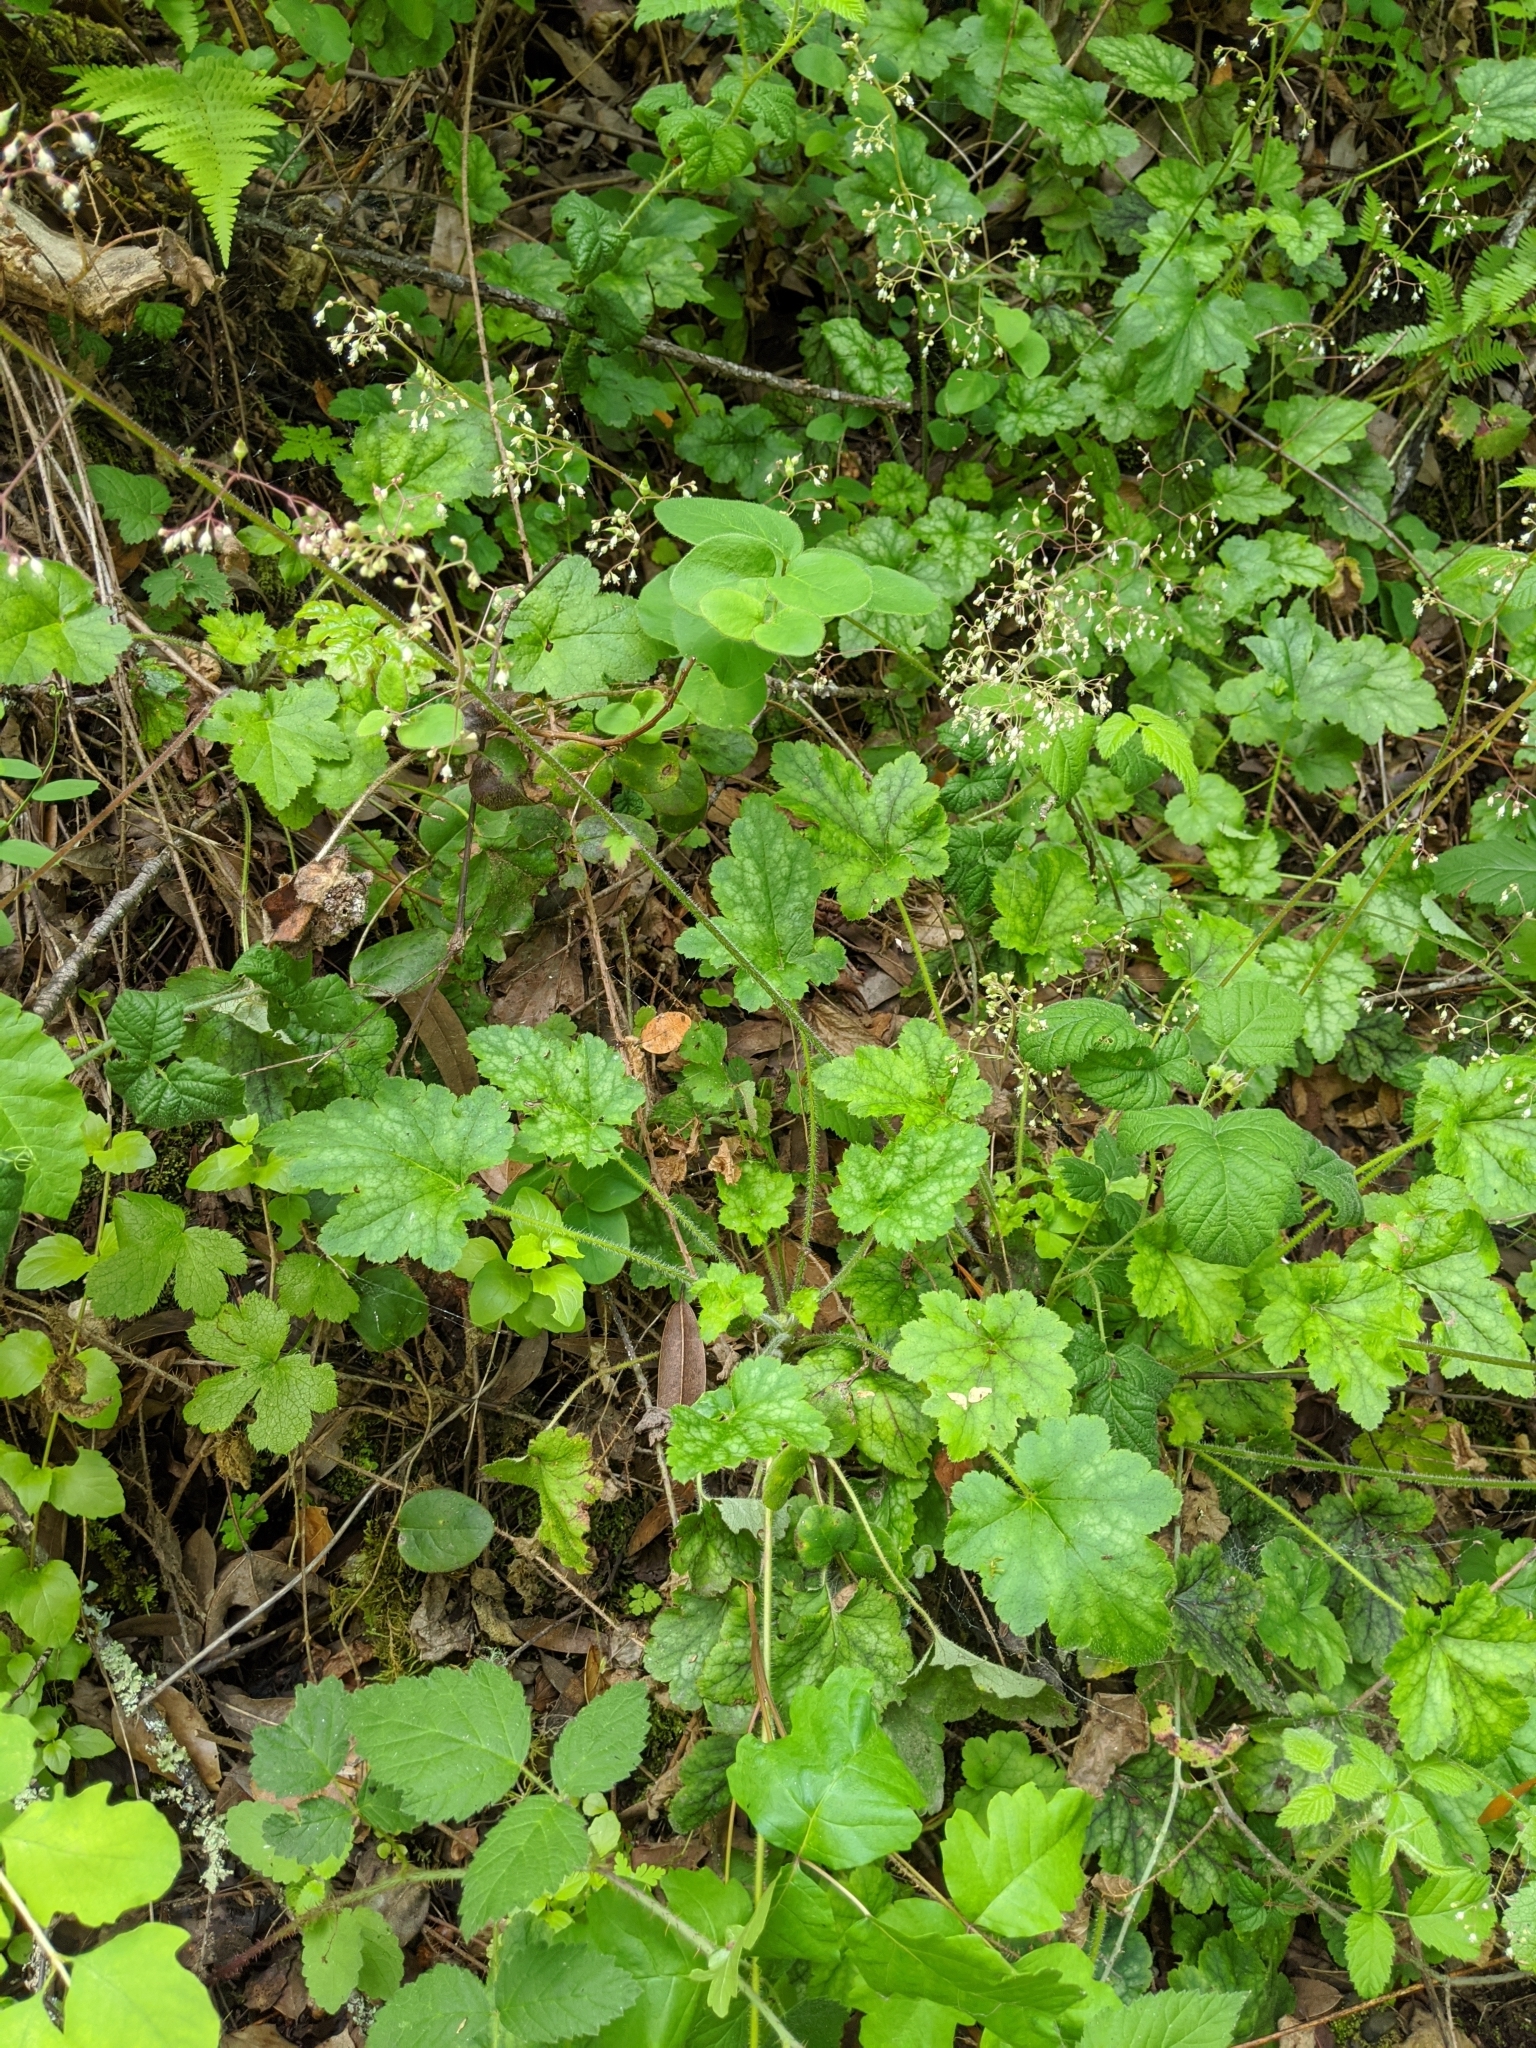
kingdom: Plantae
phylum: Tracheophyta
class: Magnoliopsida
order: Saxifragales
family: Saxifragaceae
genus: Heuchera
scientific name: Heuchera micrantha
